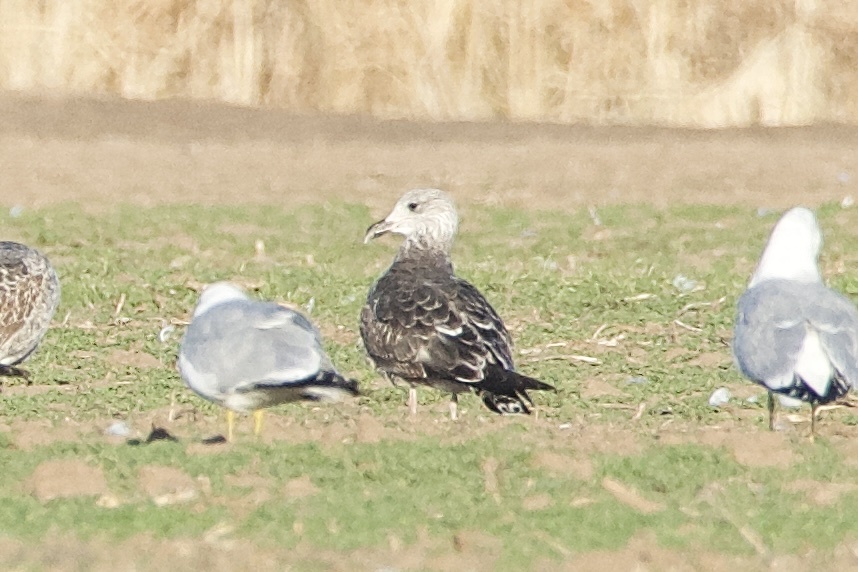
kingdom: Animalia
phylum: Chordata
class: Aves
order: Charadriiformes
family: Laridae
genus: Larus
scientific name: Larus fuscus
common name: Lesser black-backed gull
